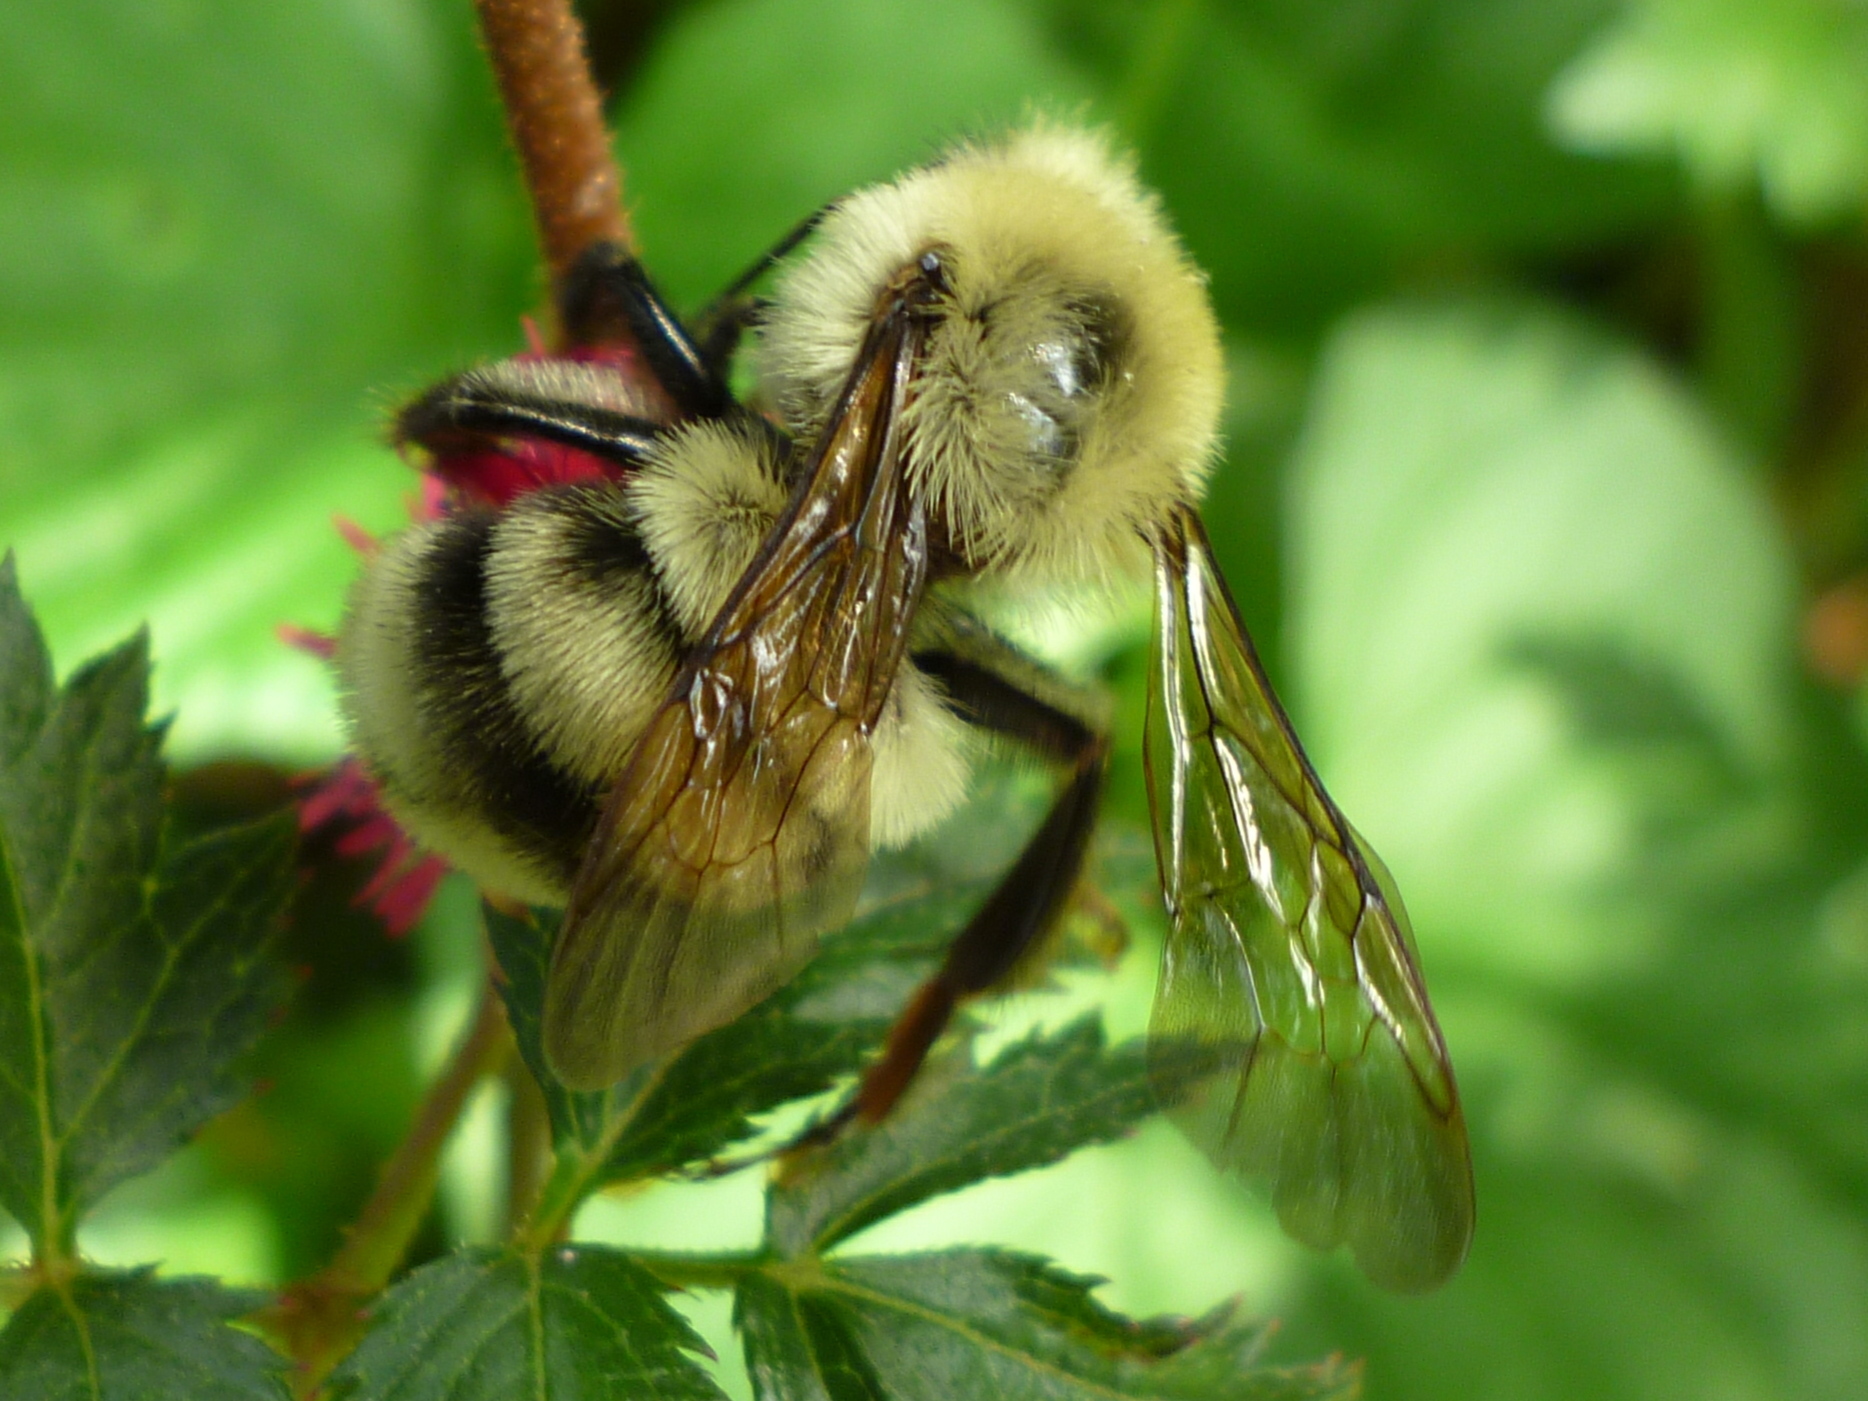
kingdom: Animalia
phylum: Arthropoda
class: Insecta
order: Hymenoptera
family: Apidae
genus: Bombus
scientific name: Bombus bimaculatus
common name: Two-spotted bumble bee
